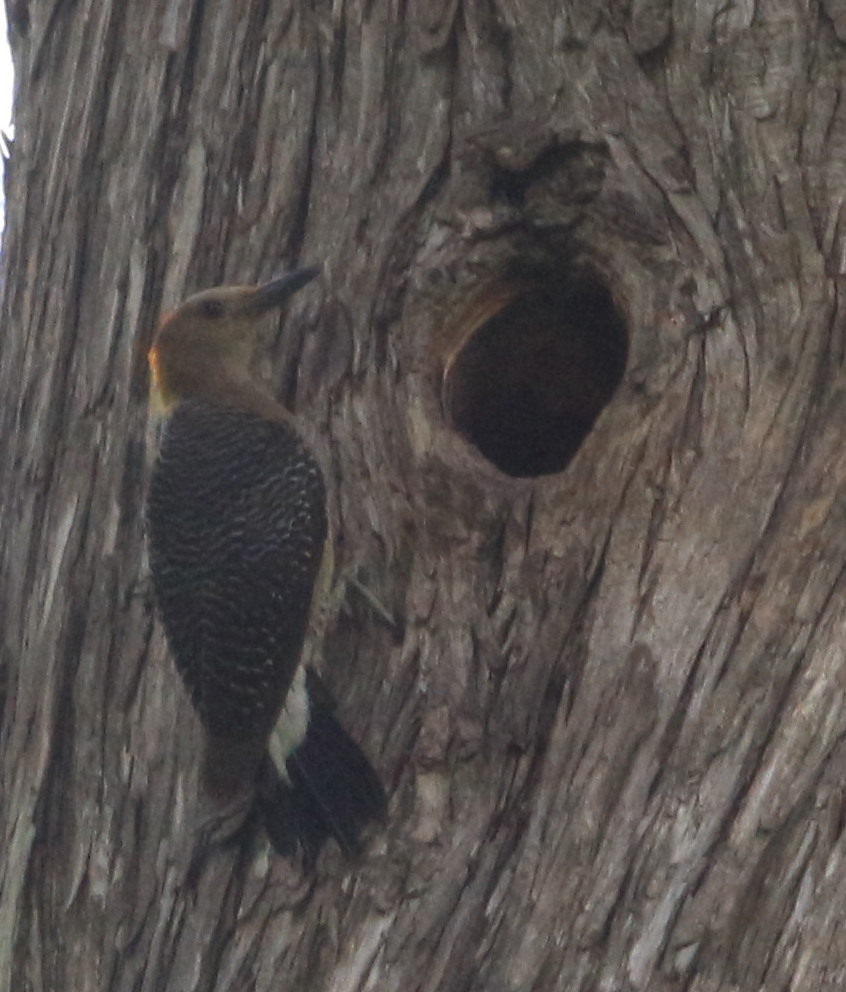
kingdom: Animalia
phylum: Chordata
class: Aves
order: Piciformes
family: Picidae
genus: Melanerpes
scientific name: Melanerpes aurifrons
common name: Golden-fronted woodpecker
